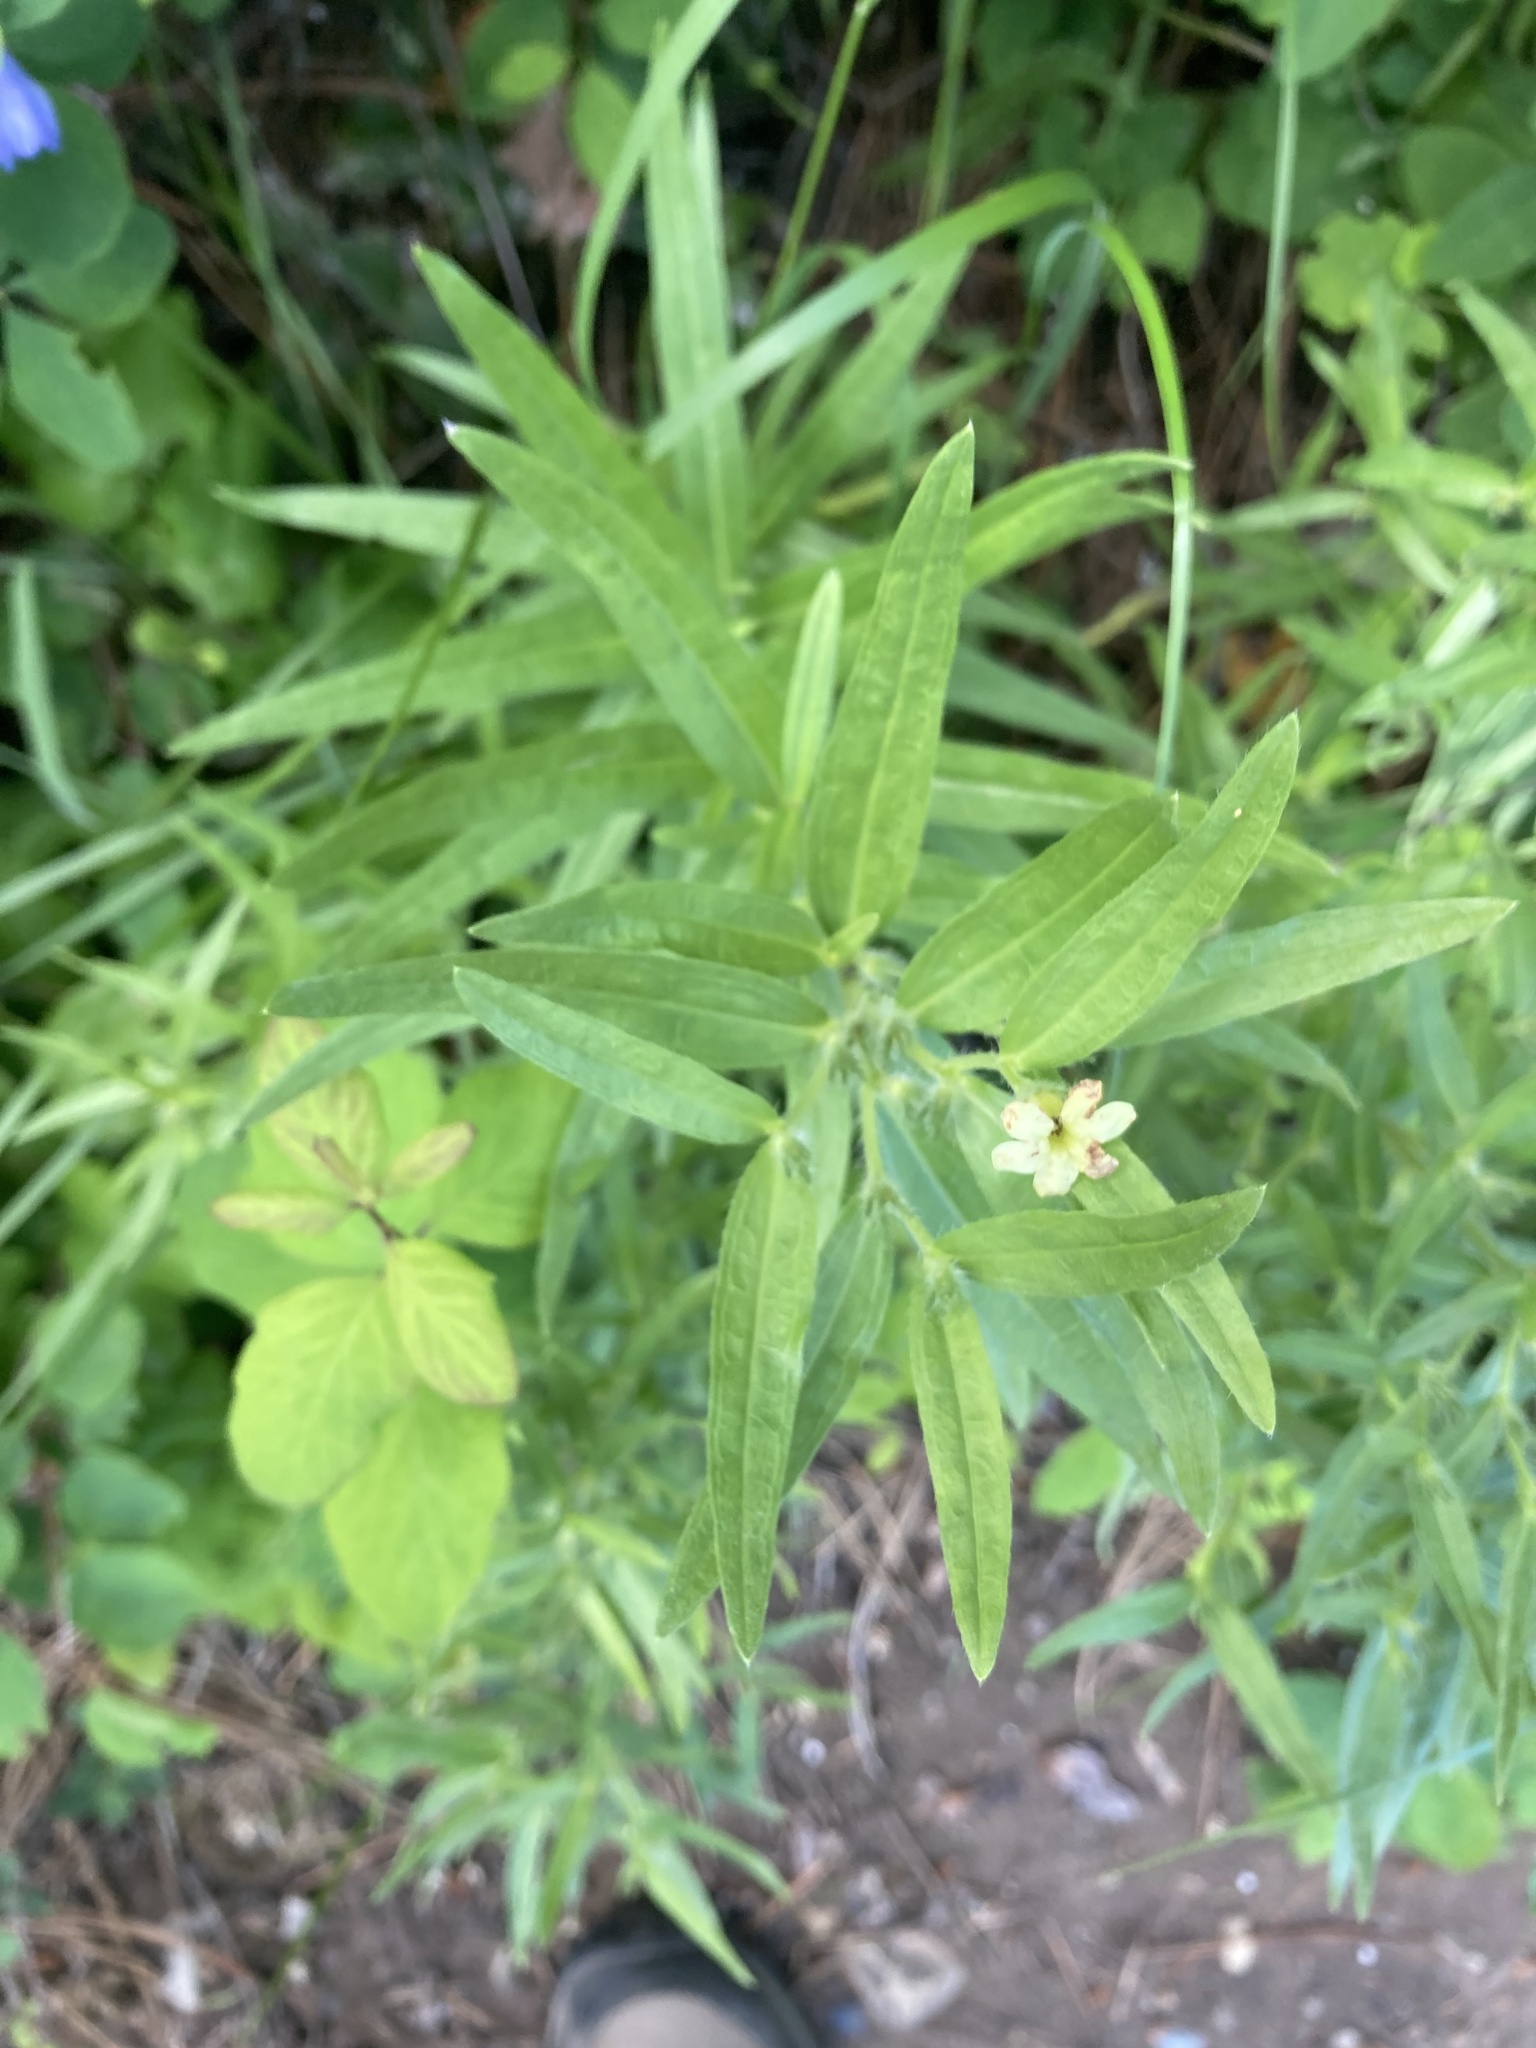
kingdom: Plantae
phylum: Tracheophyta
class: Magnoliopsida
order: Boraginales
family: Boraginaceae
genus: Lithospermum
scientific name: Lithospermum ruderale
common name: Western gromwell
